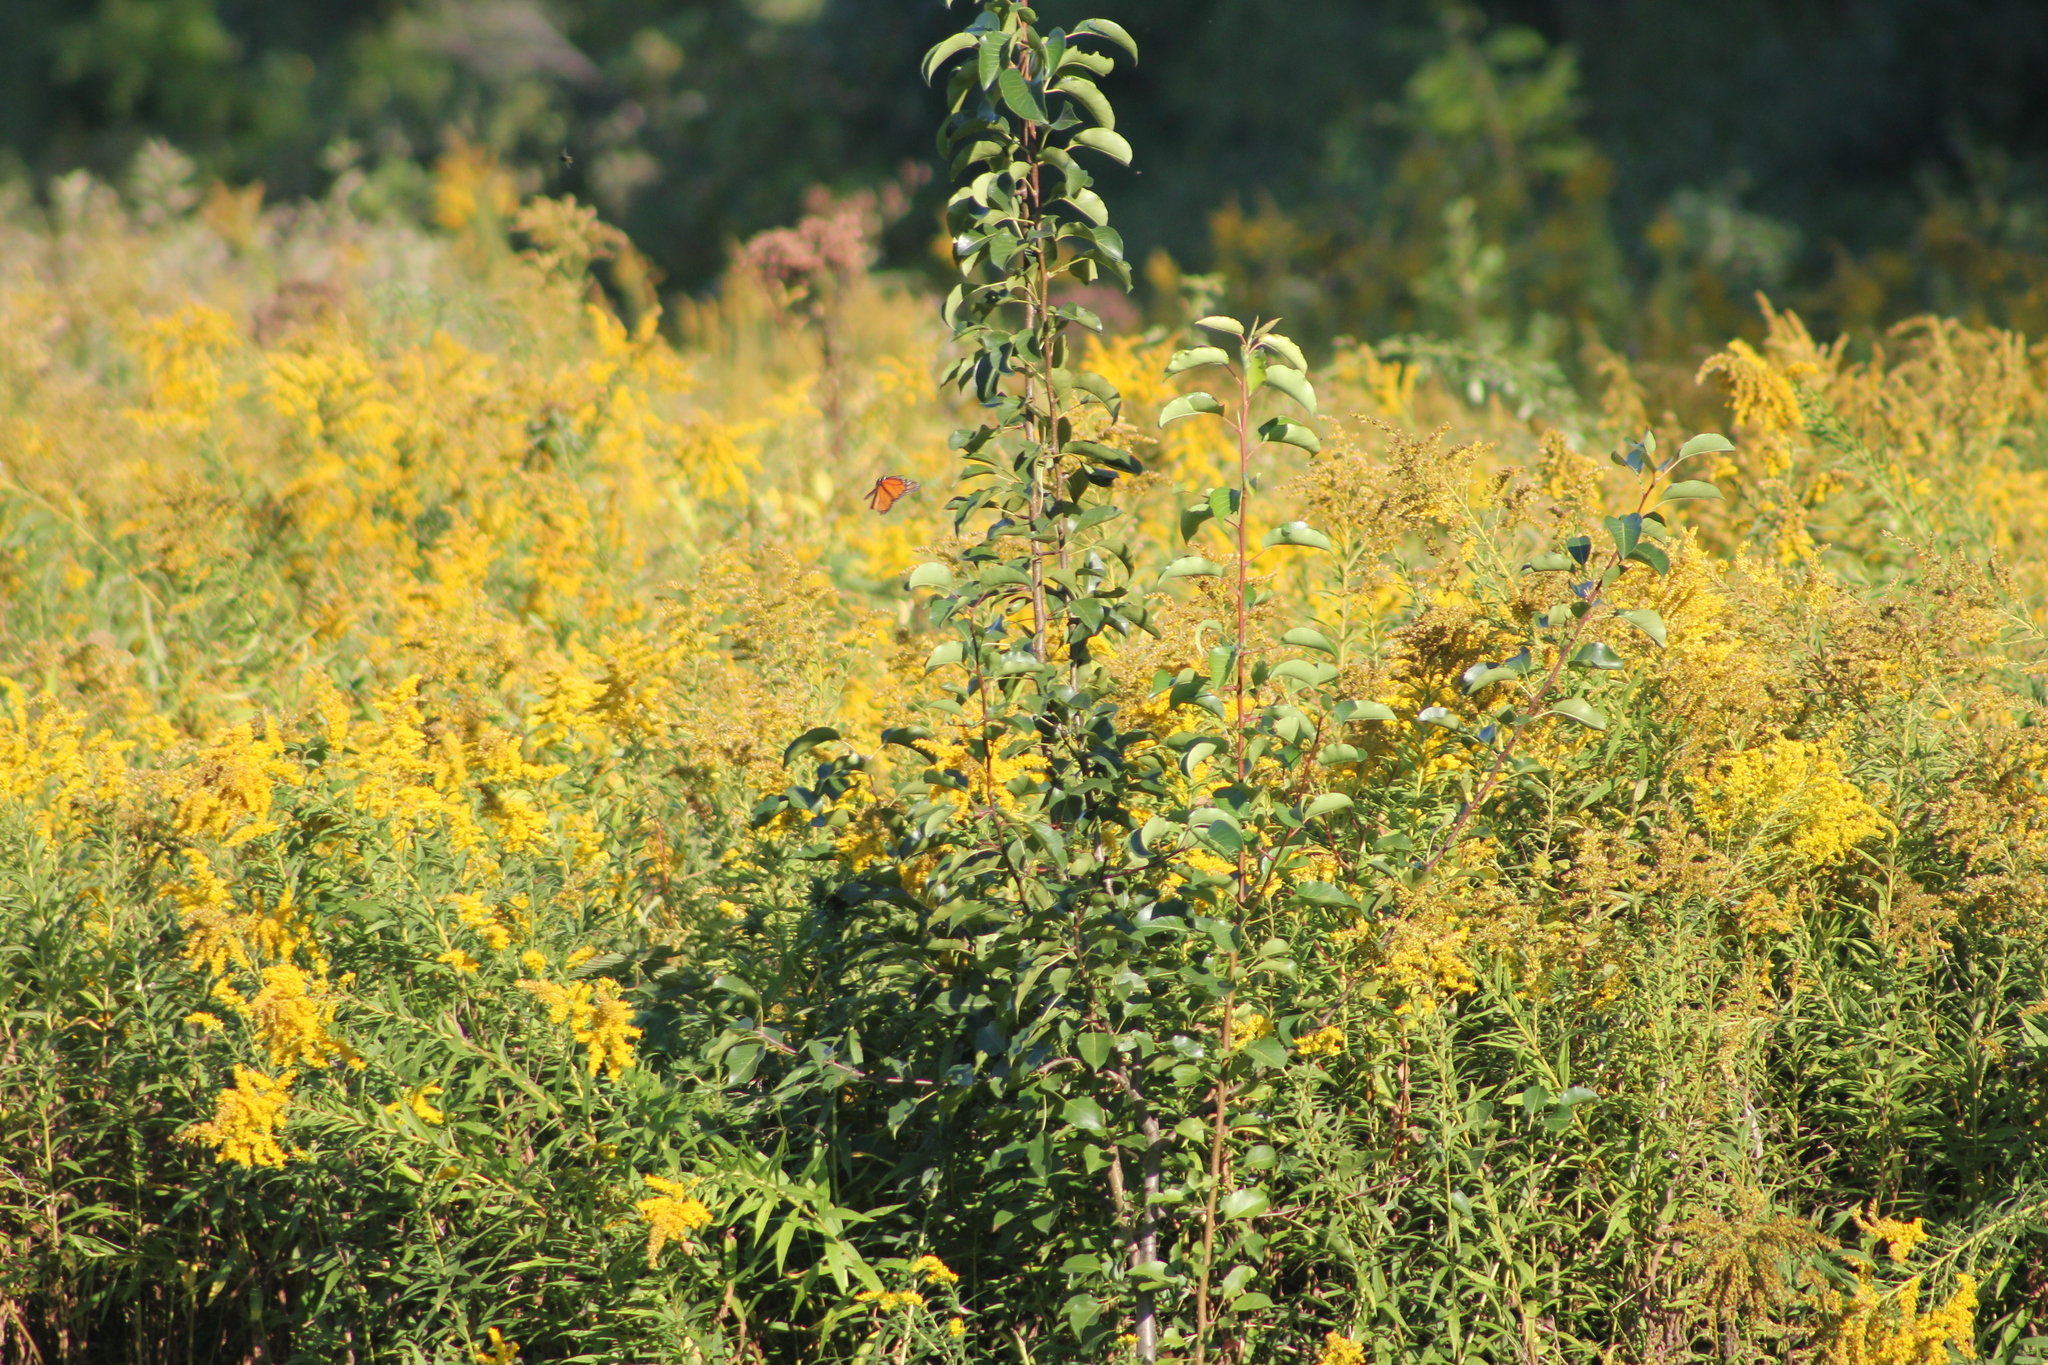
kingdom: Animalia
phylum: Arthropoda
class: Insecta
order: Lepidoptera
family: Nymphalidae
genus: Danaus
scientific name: Danaus plexippus
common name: Monarch
